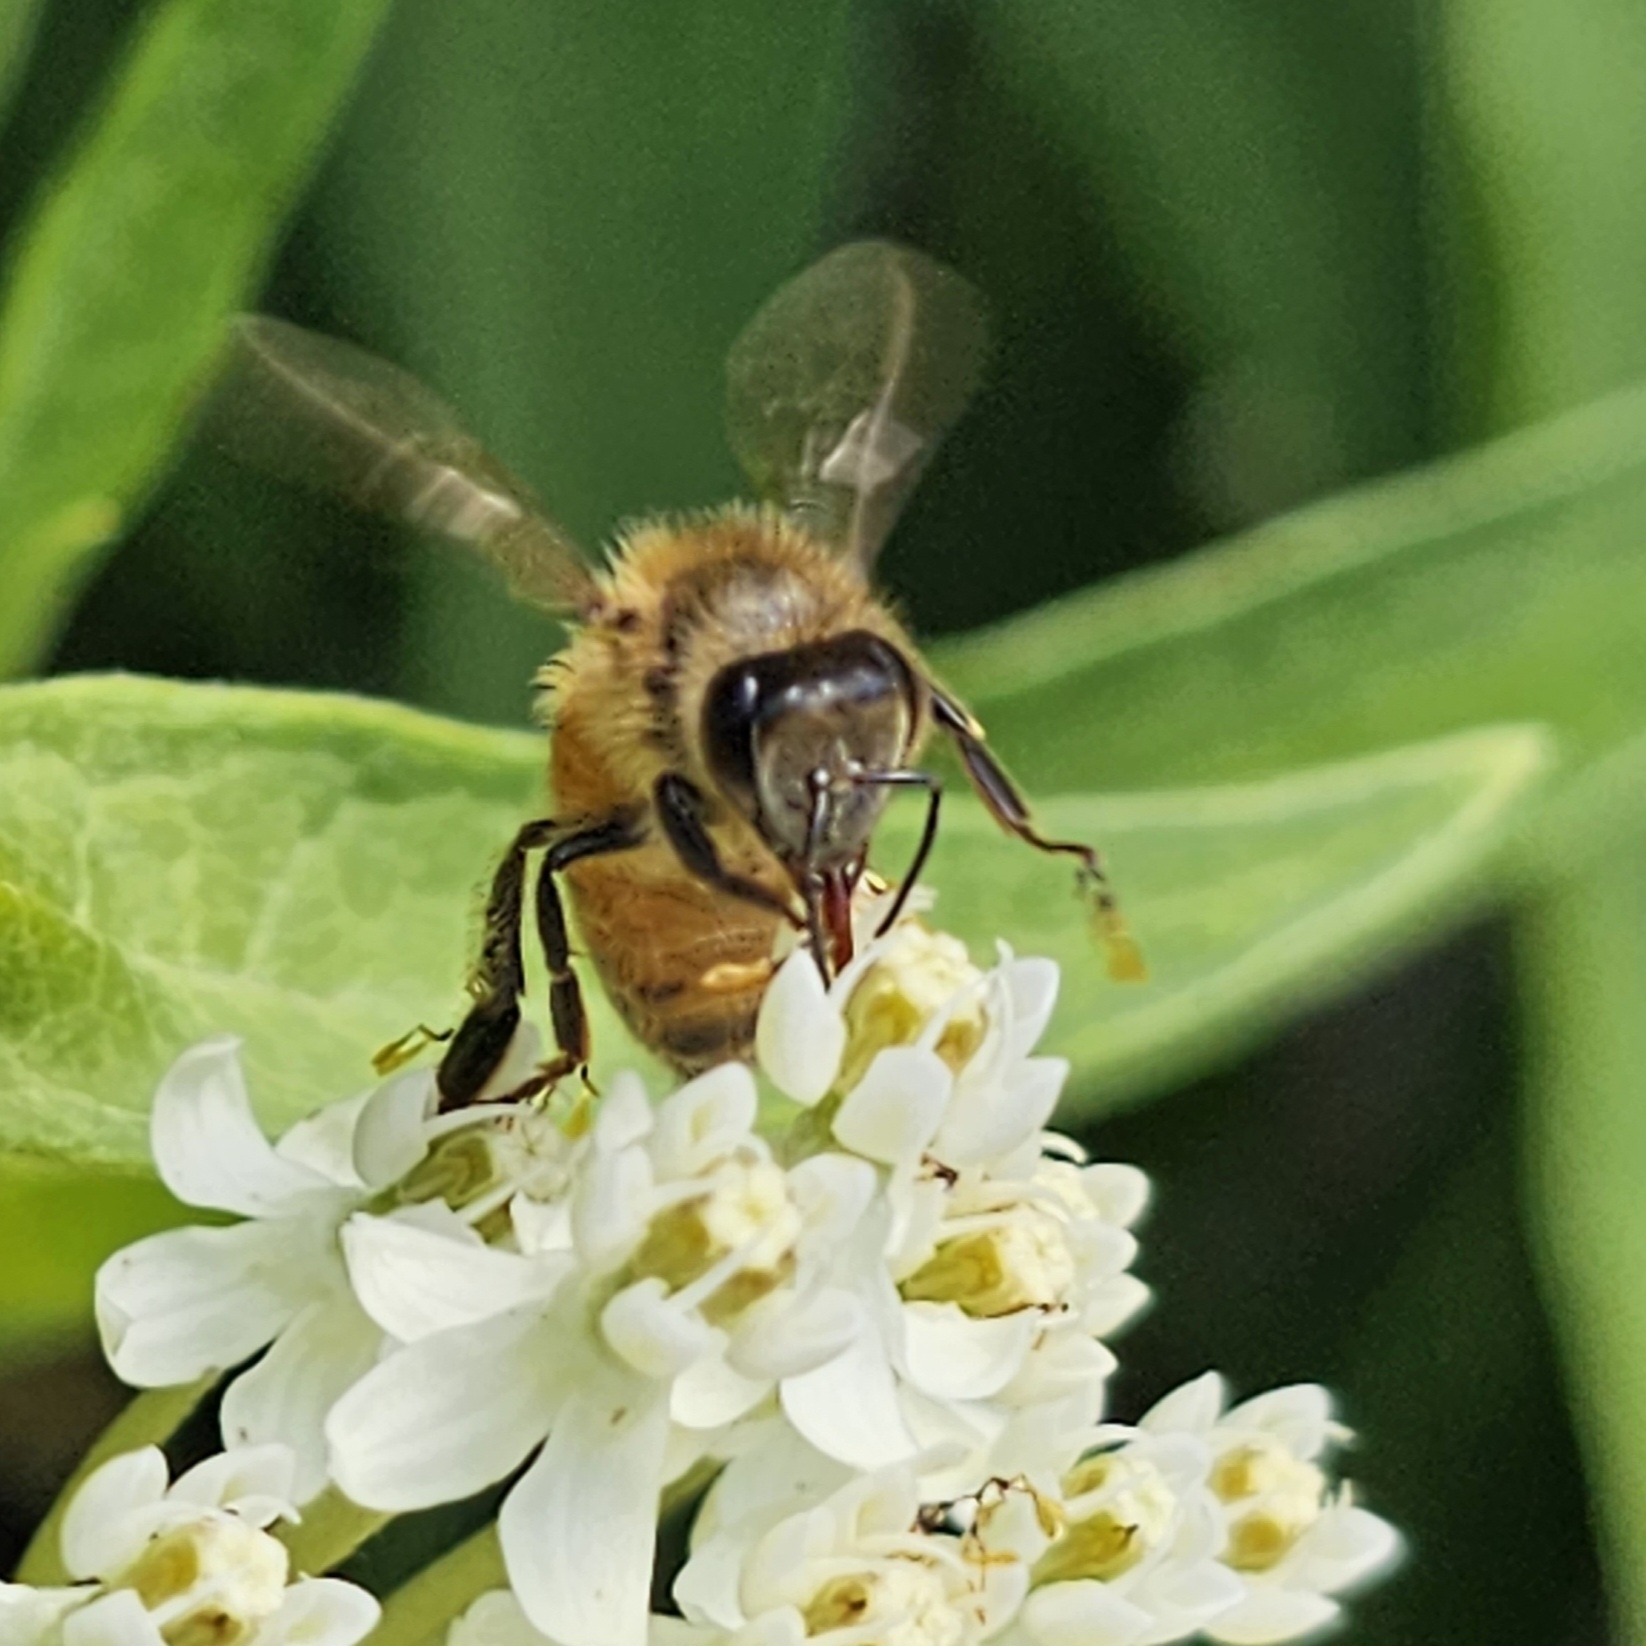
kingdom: Animalia
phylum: Arthropoda
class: Insecta
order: Hymenoptera
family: Apidae
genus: Apis
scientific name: Apis mellifera
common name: Honey bee
